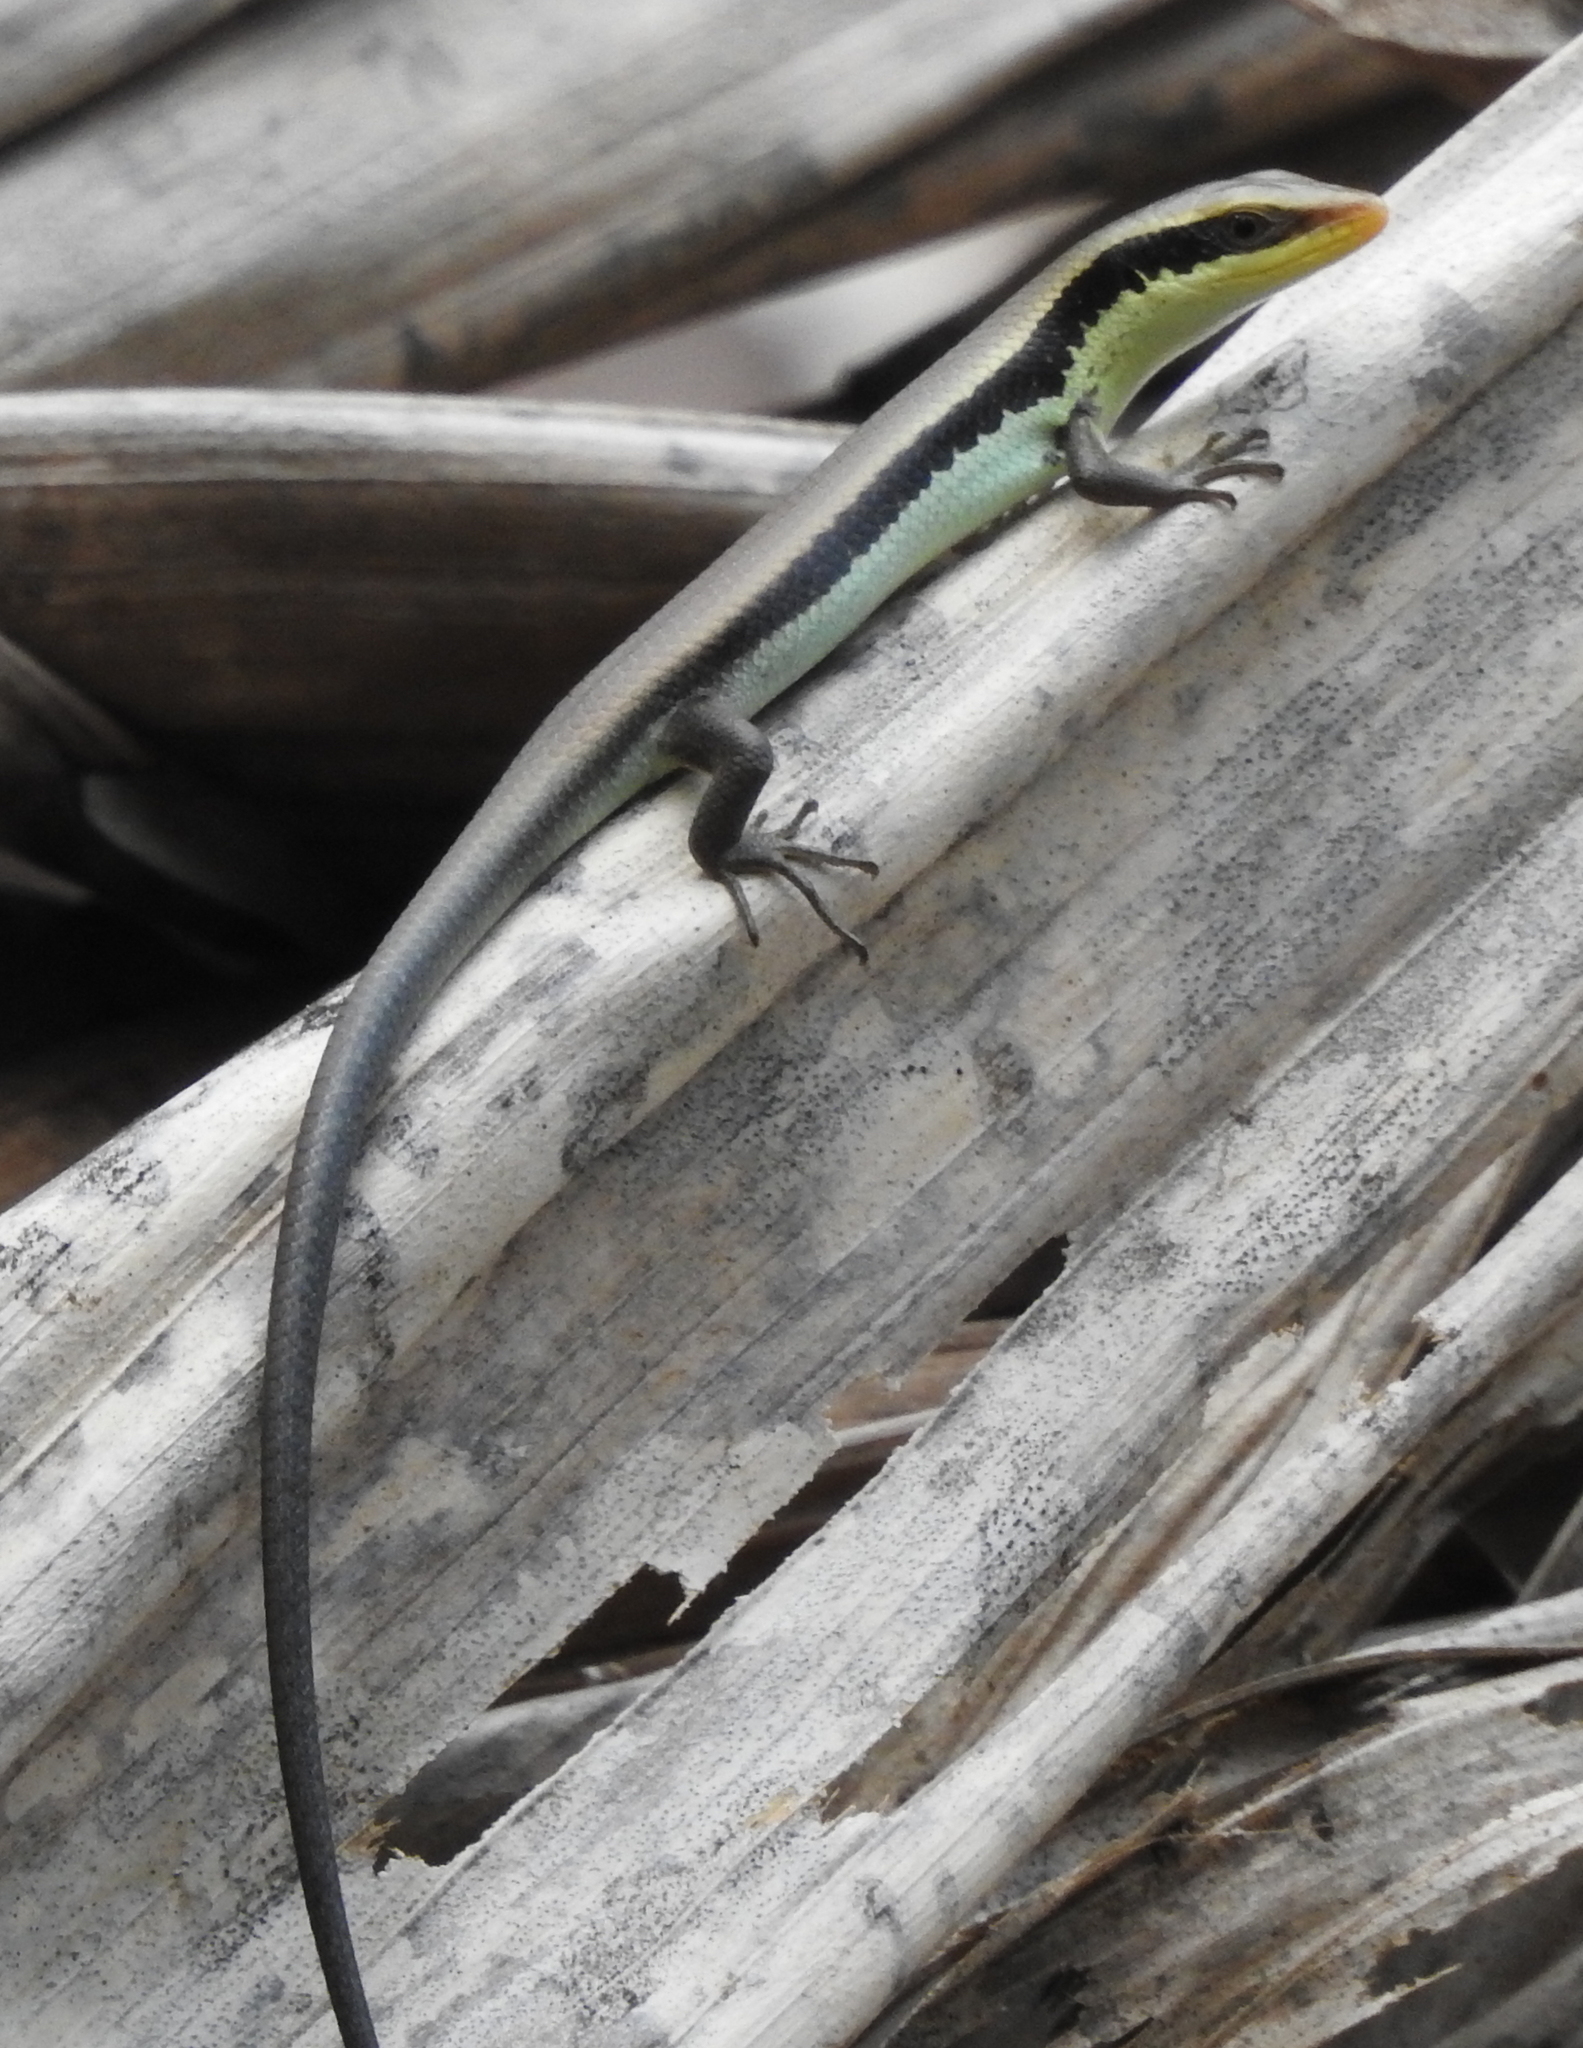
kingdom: Animalia
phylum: Chordata
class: Squamata
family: Scincidae
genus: Eutropis
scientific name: Eutropis longicaudata
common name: Long-tailed sun skink
